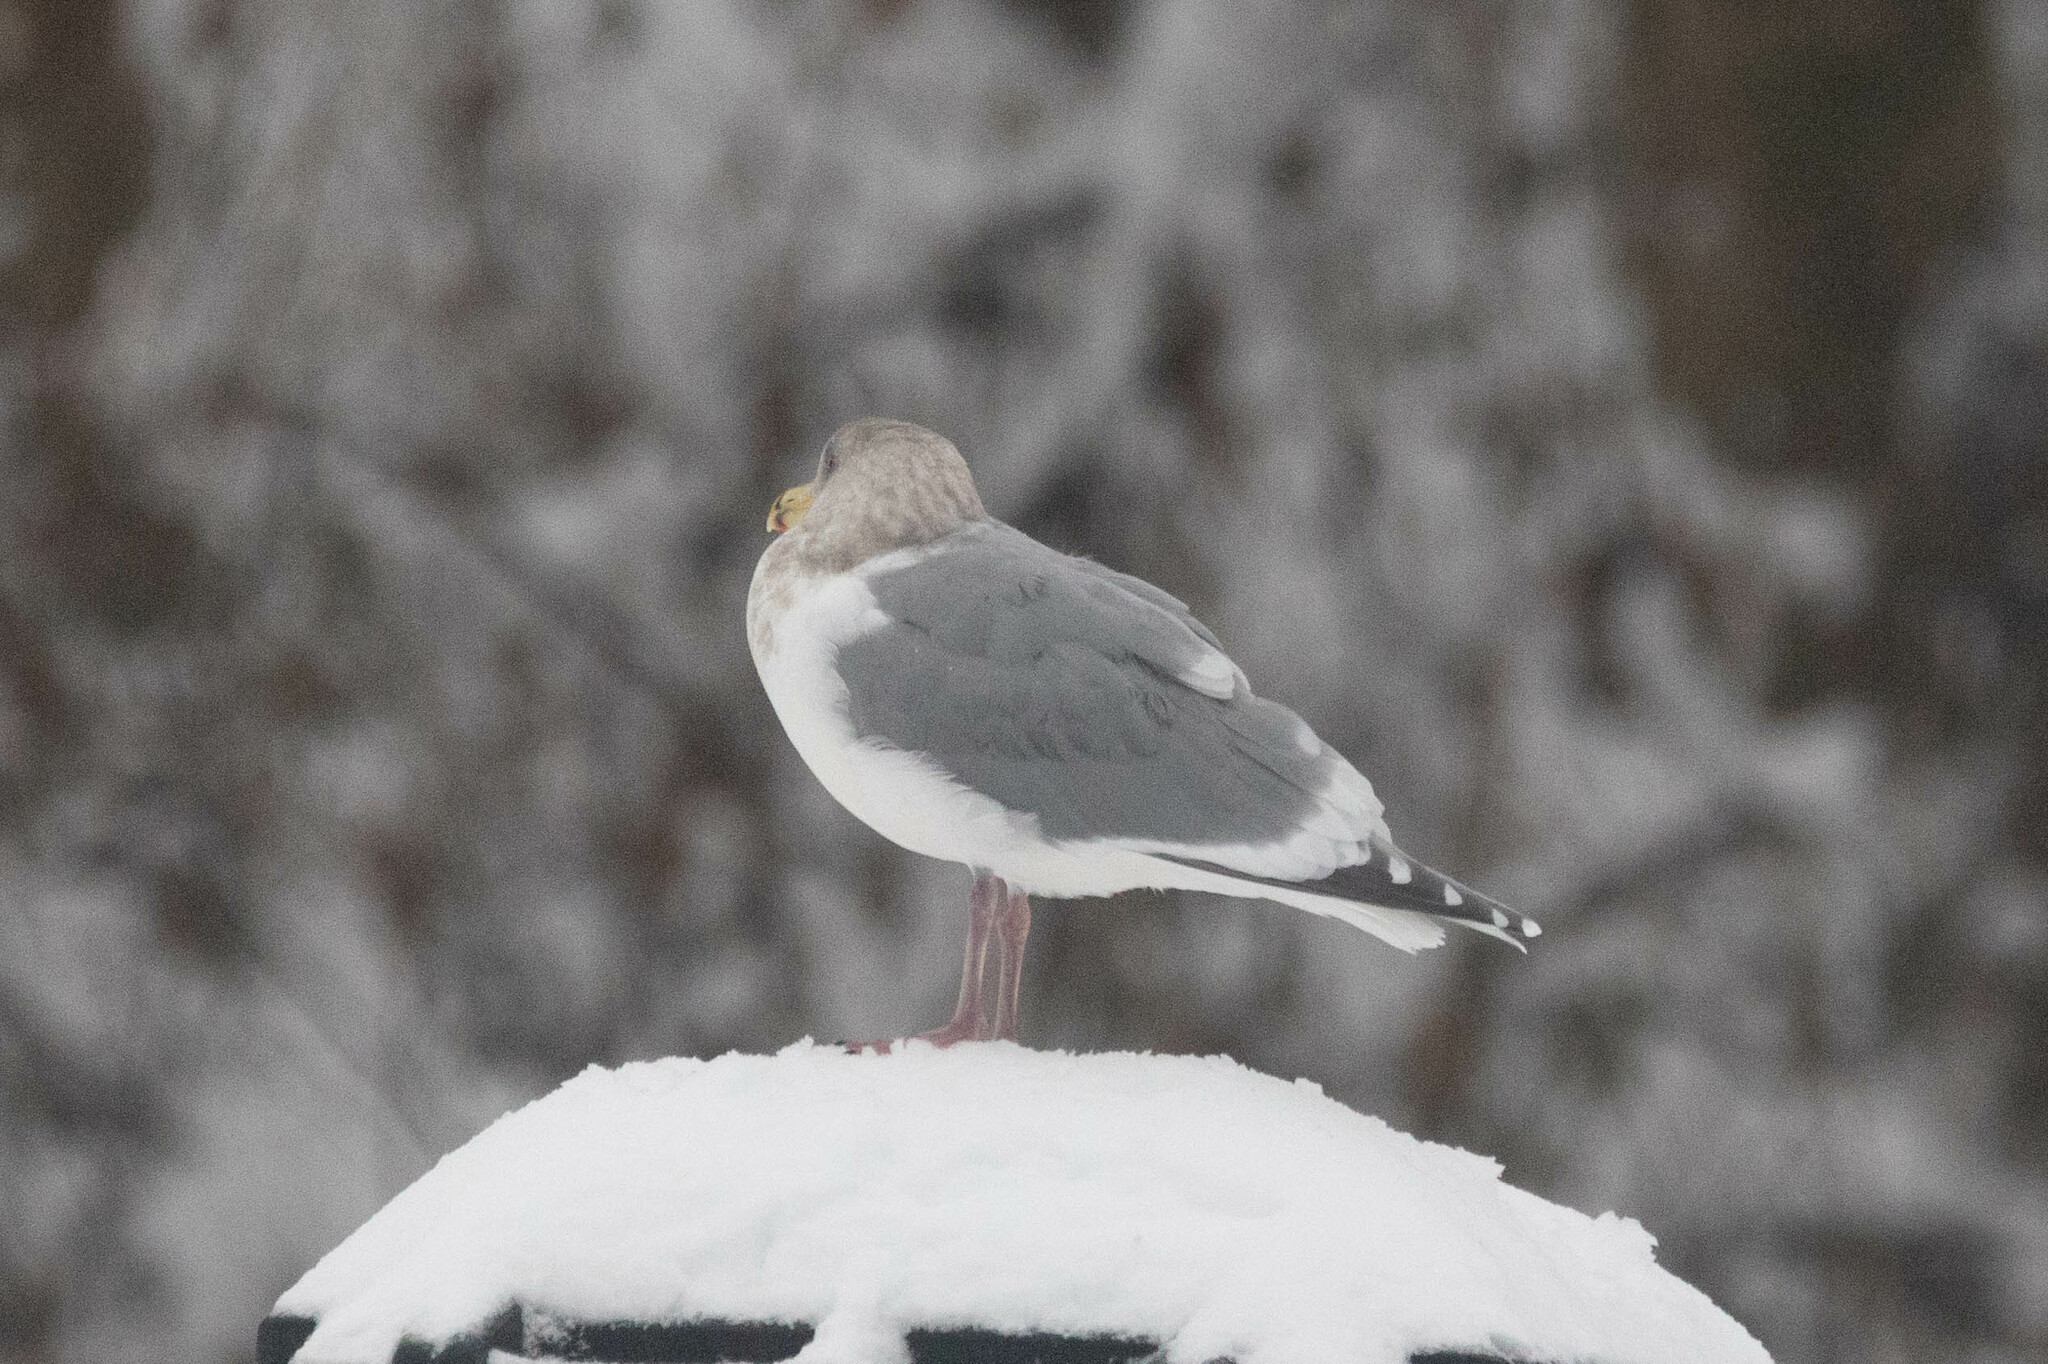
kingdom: Animalia
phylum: Chordata
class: Aves
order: Charadriiformes
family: Laridae
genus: Larus
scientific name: Larus
